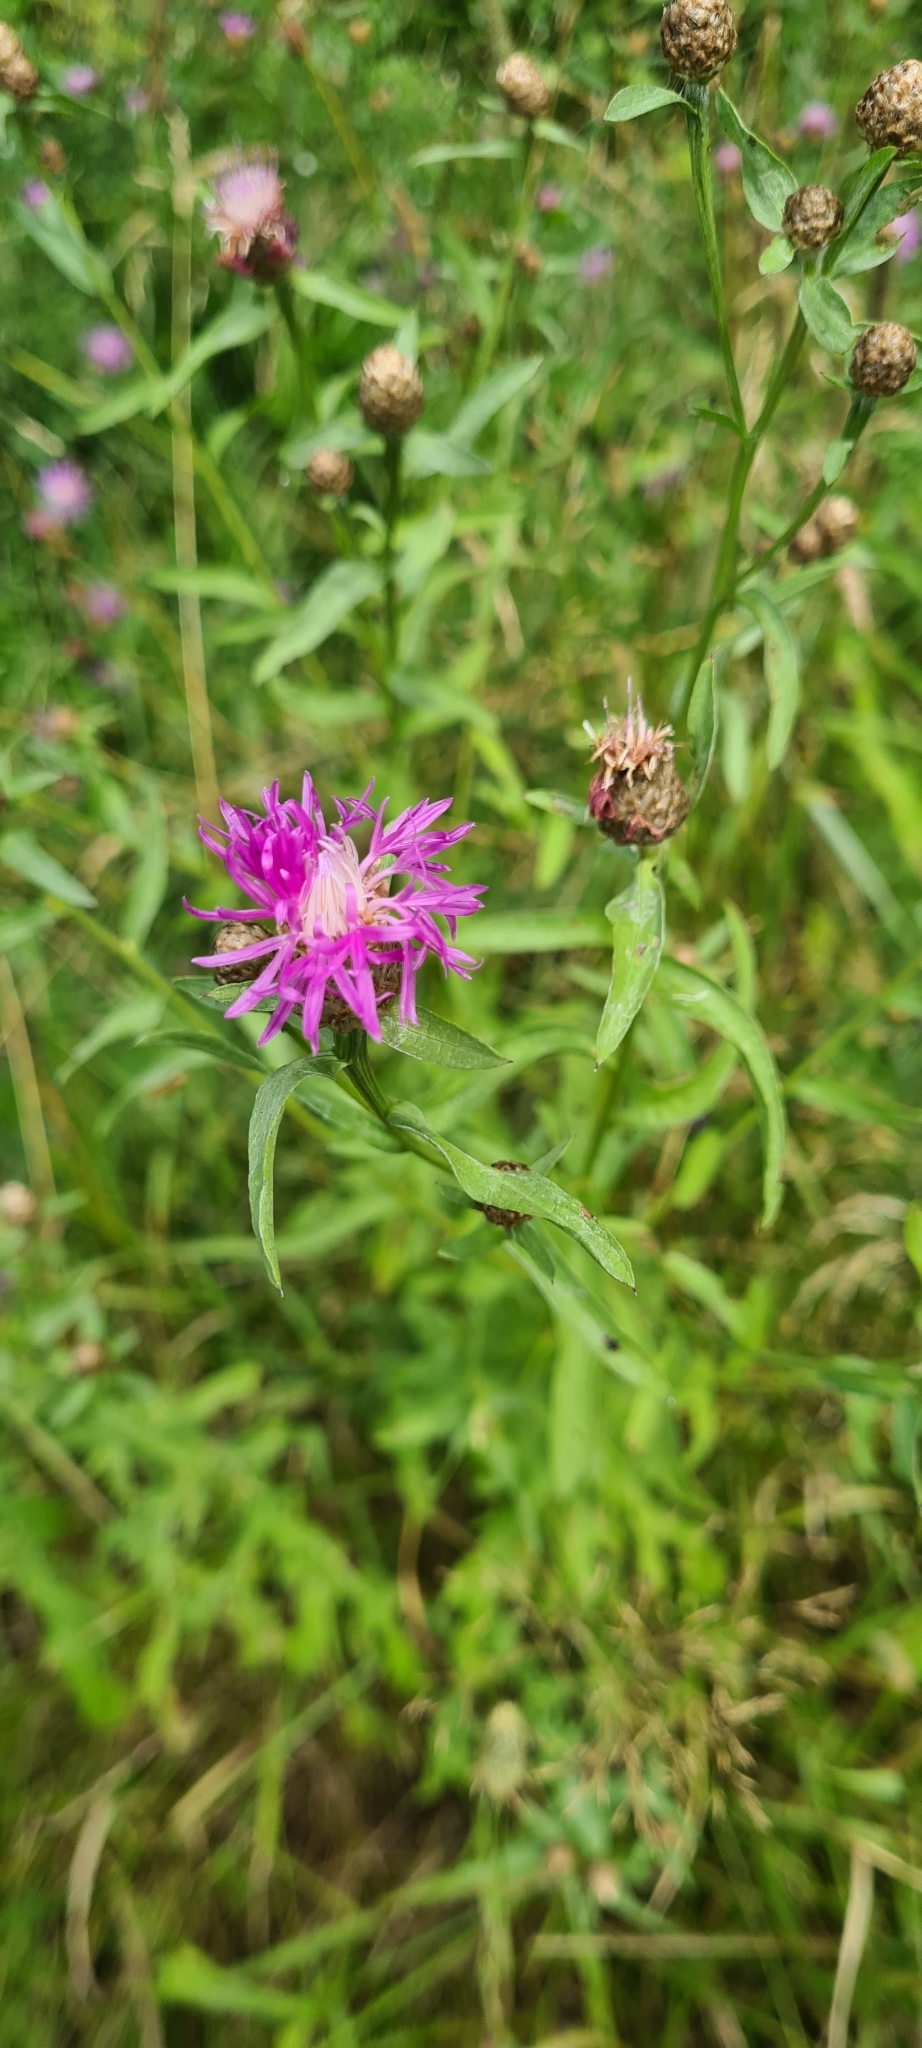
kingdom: Plantae
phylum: Tracheophyta
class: Magnoliopsida
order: Asterales
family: Asteraceae
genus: Centaurea
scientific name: Centaurea jacea
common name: Brown knapweed
